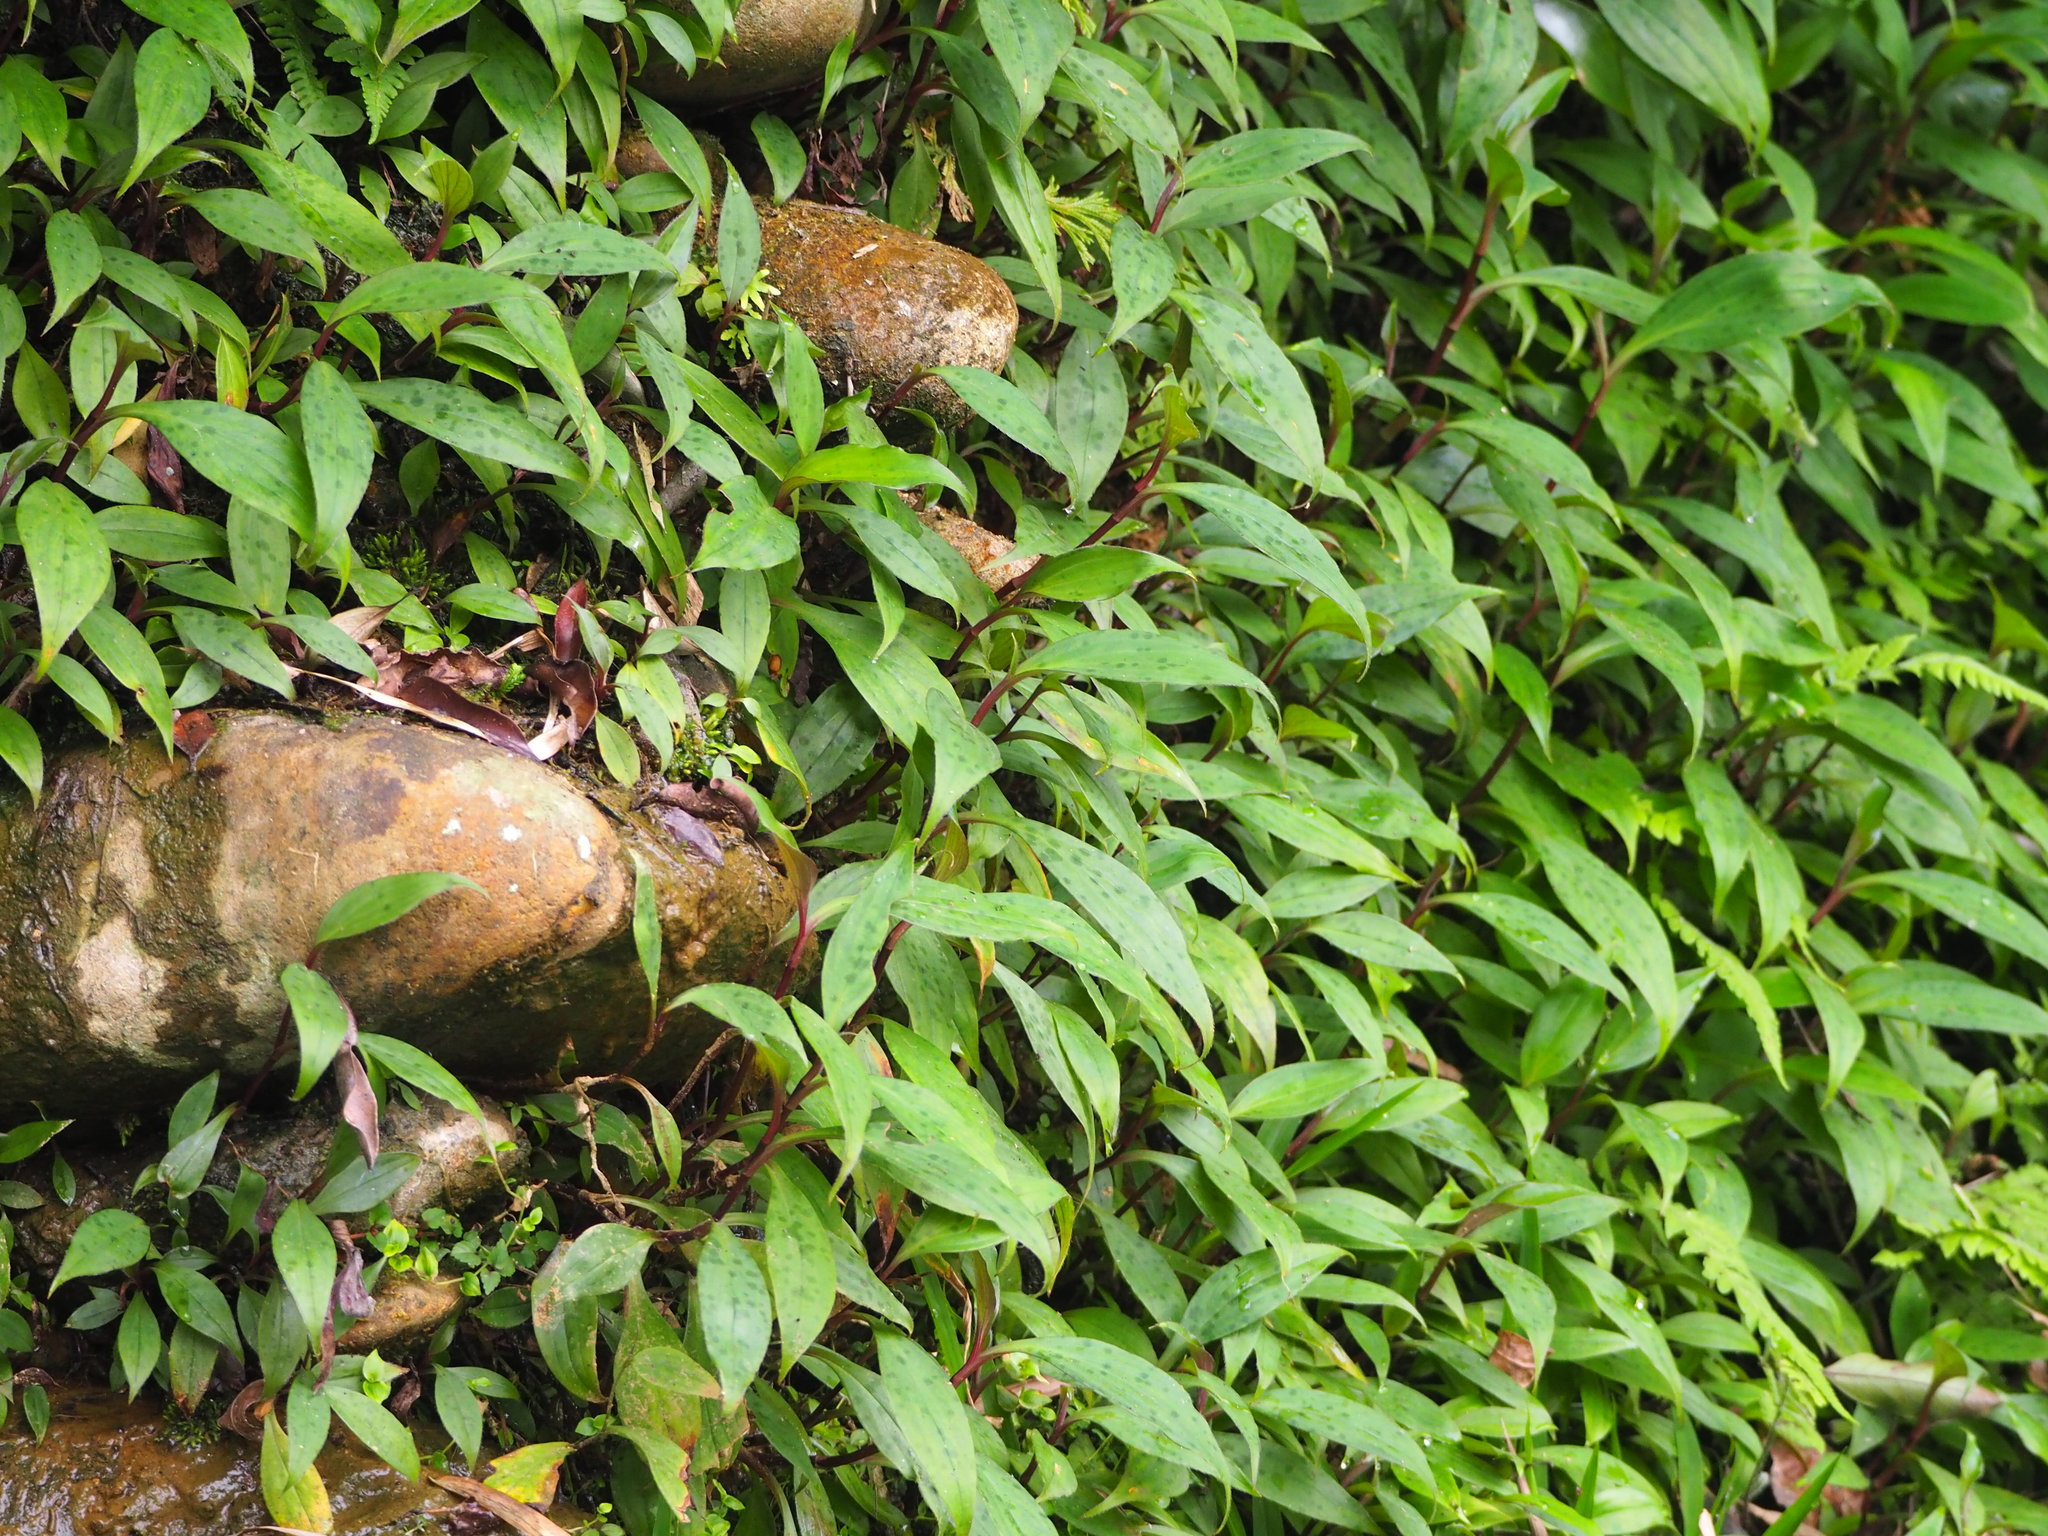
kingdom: Plantae
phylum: Tracheophyta
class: Liliopsida
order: Liliales
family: Liliaceae
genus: Tricyrtis
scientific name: Tricyrtis formosana
